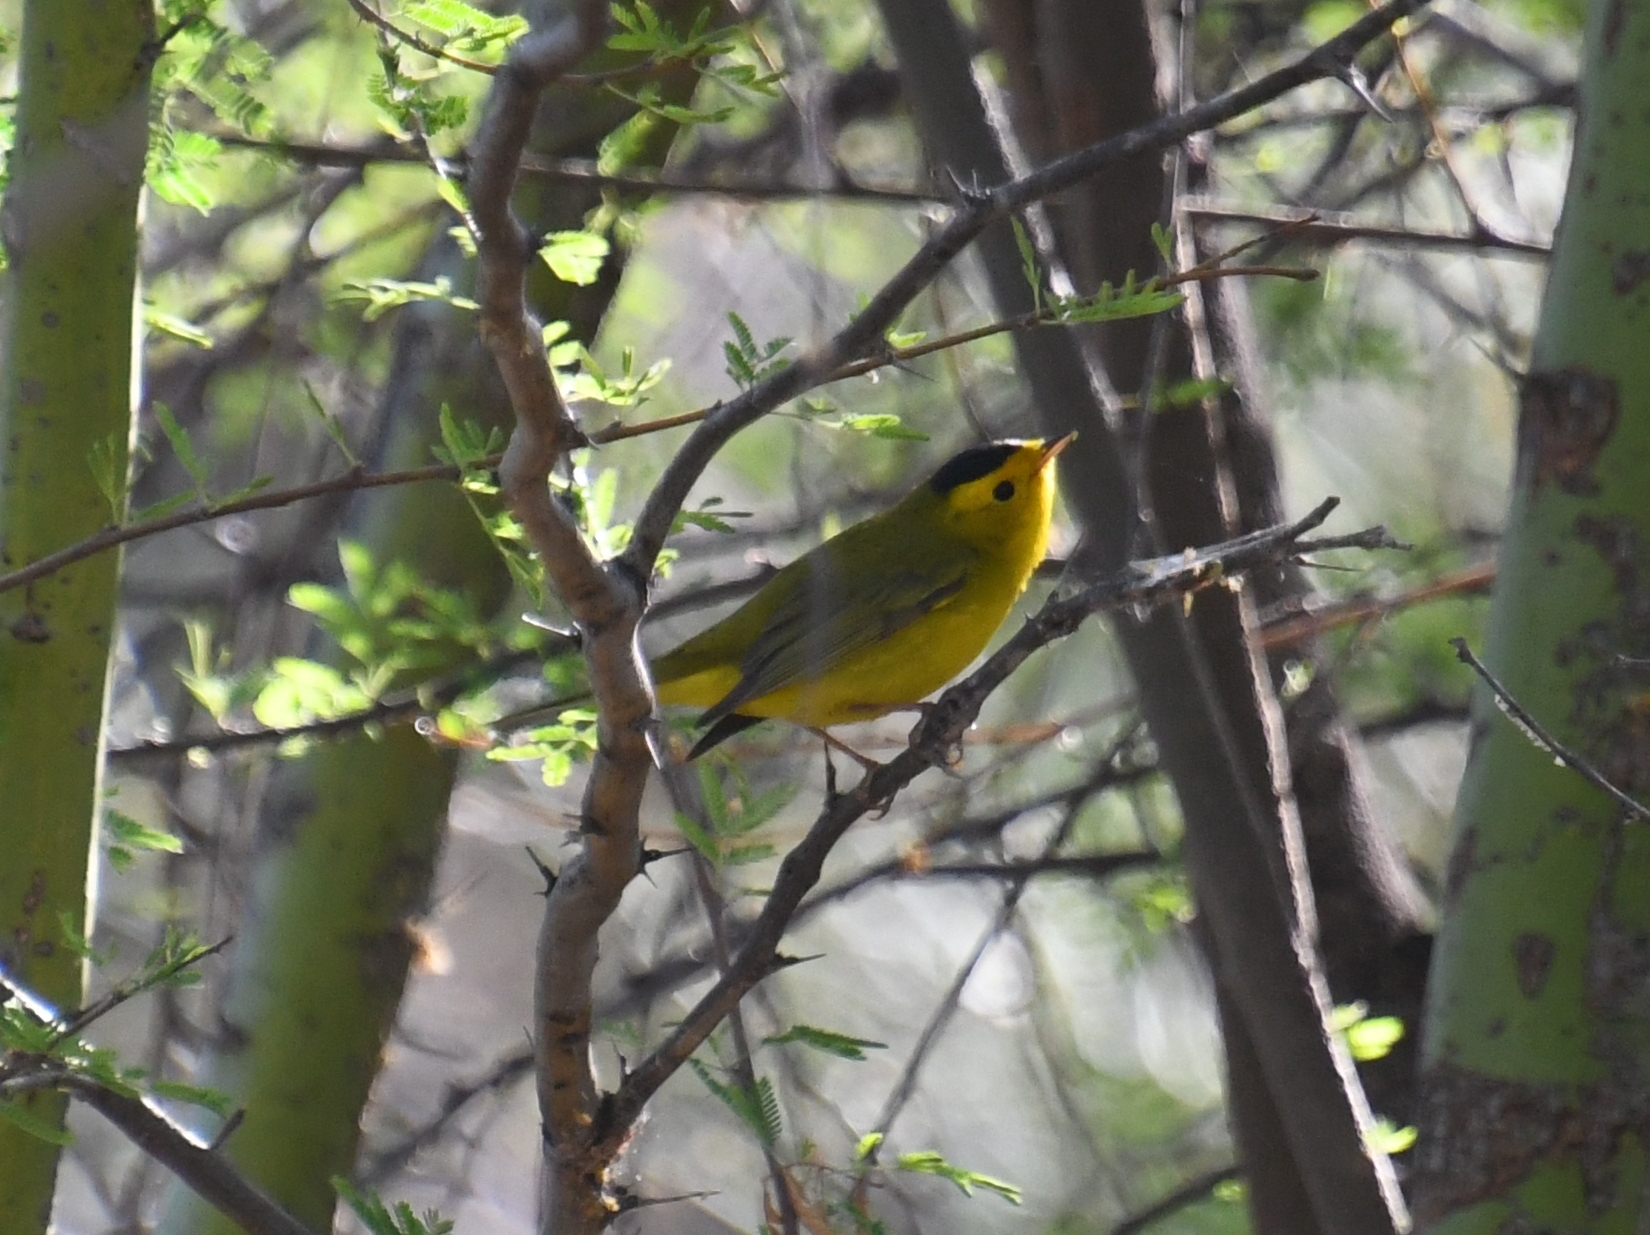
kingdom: Animalia
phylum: Chordata
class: Aves
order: Passeriformes
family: Parulidae
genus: Cardellina
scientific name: Cardellina pusilla
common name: Wilson's warbler
